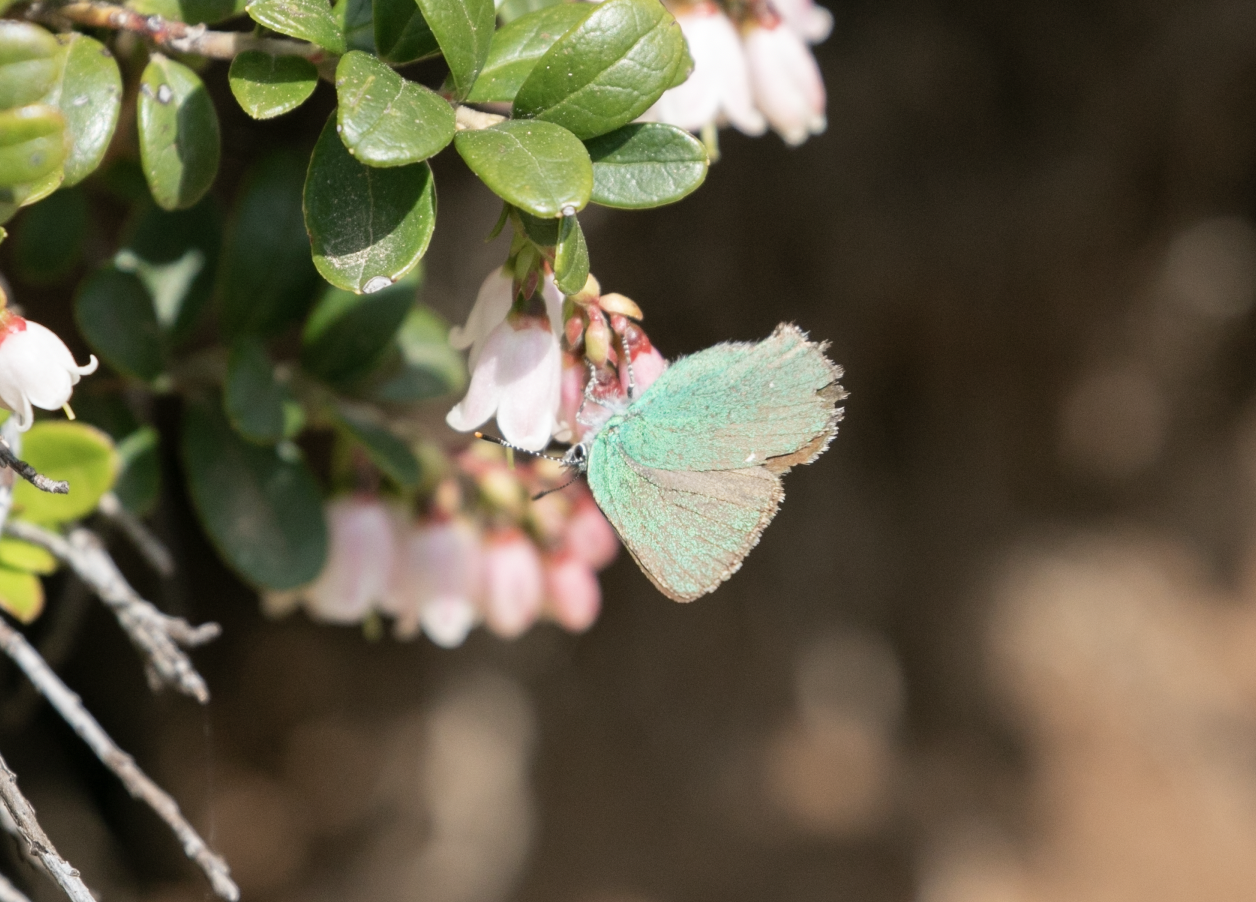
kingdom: Animalia
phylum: Arthropoda
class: Insecta
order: Lepidoptera
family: Lycaenidae
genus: Callophrys
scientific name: Callophrys rubi
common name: Green hairstreak
